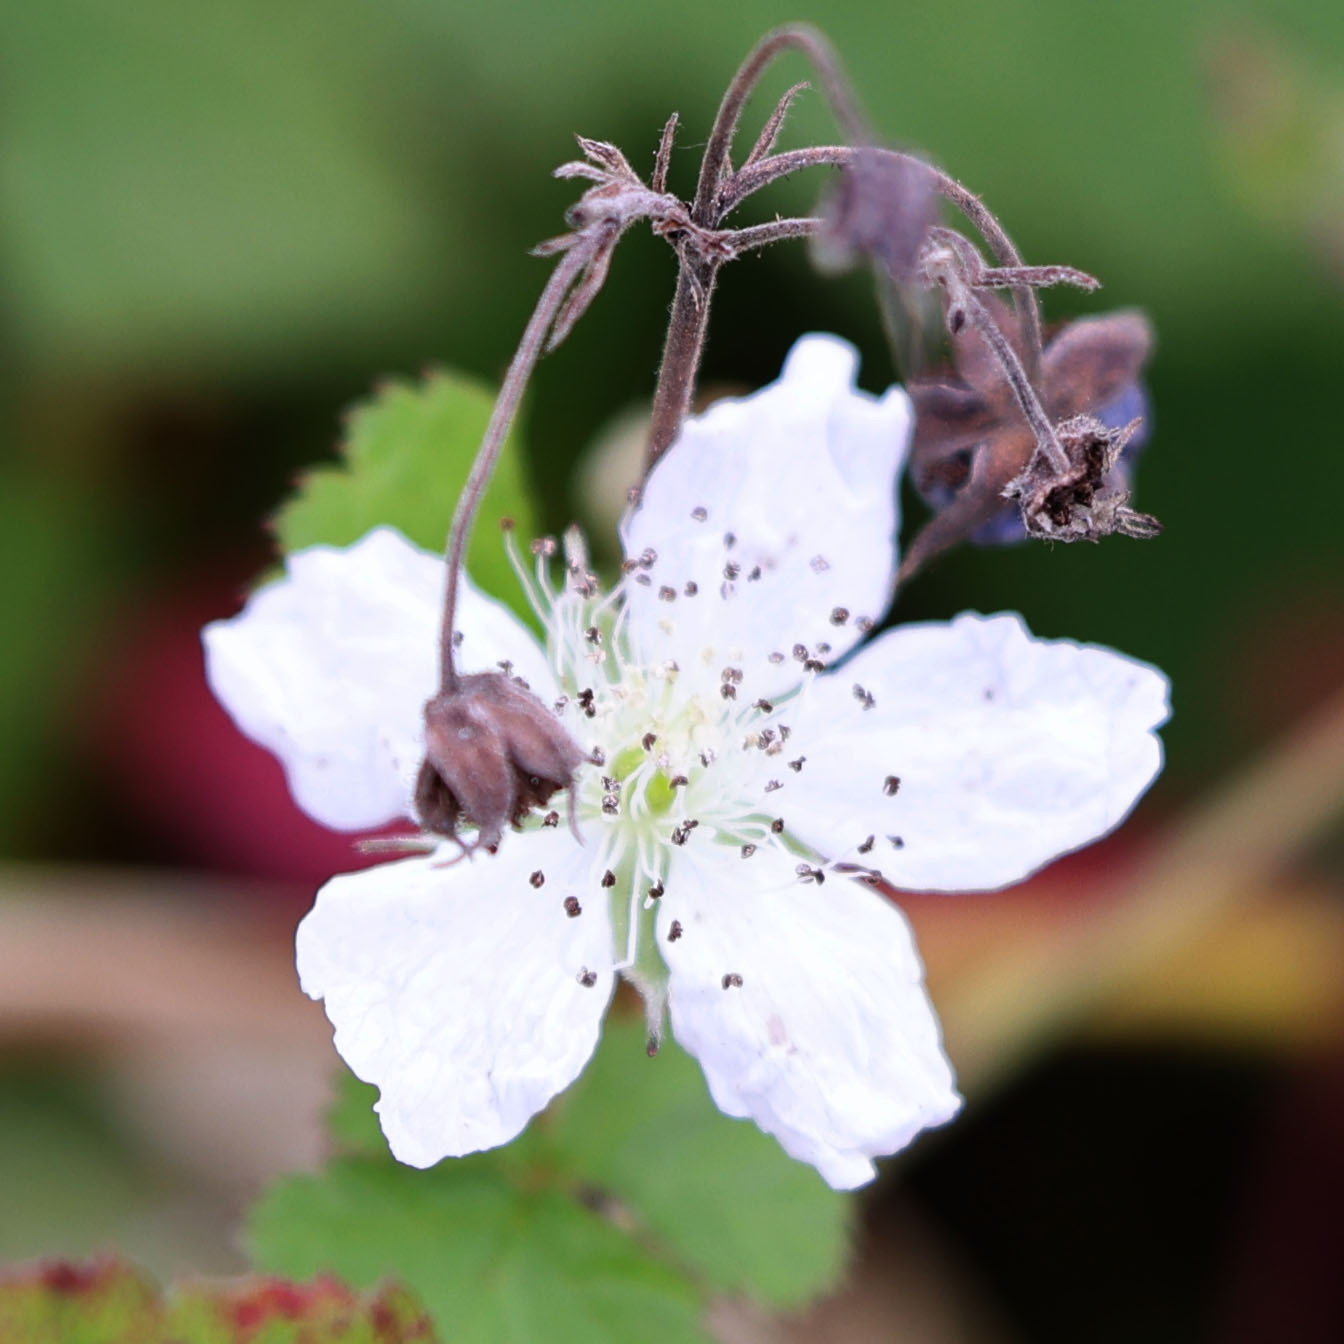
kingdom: Plantae
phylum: Tracheophyta
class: Magnoliopsida
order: Rosales
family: Rosaceae
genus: Rubus
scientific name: Rubus caesius
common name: Dewberry
